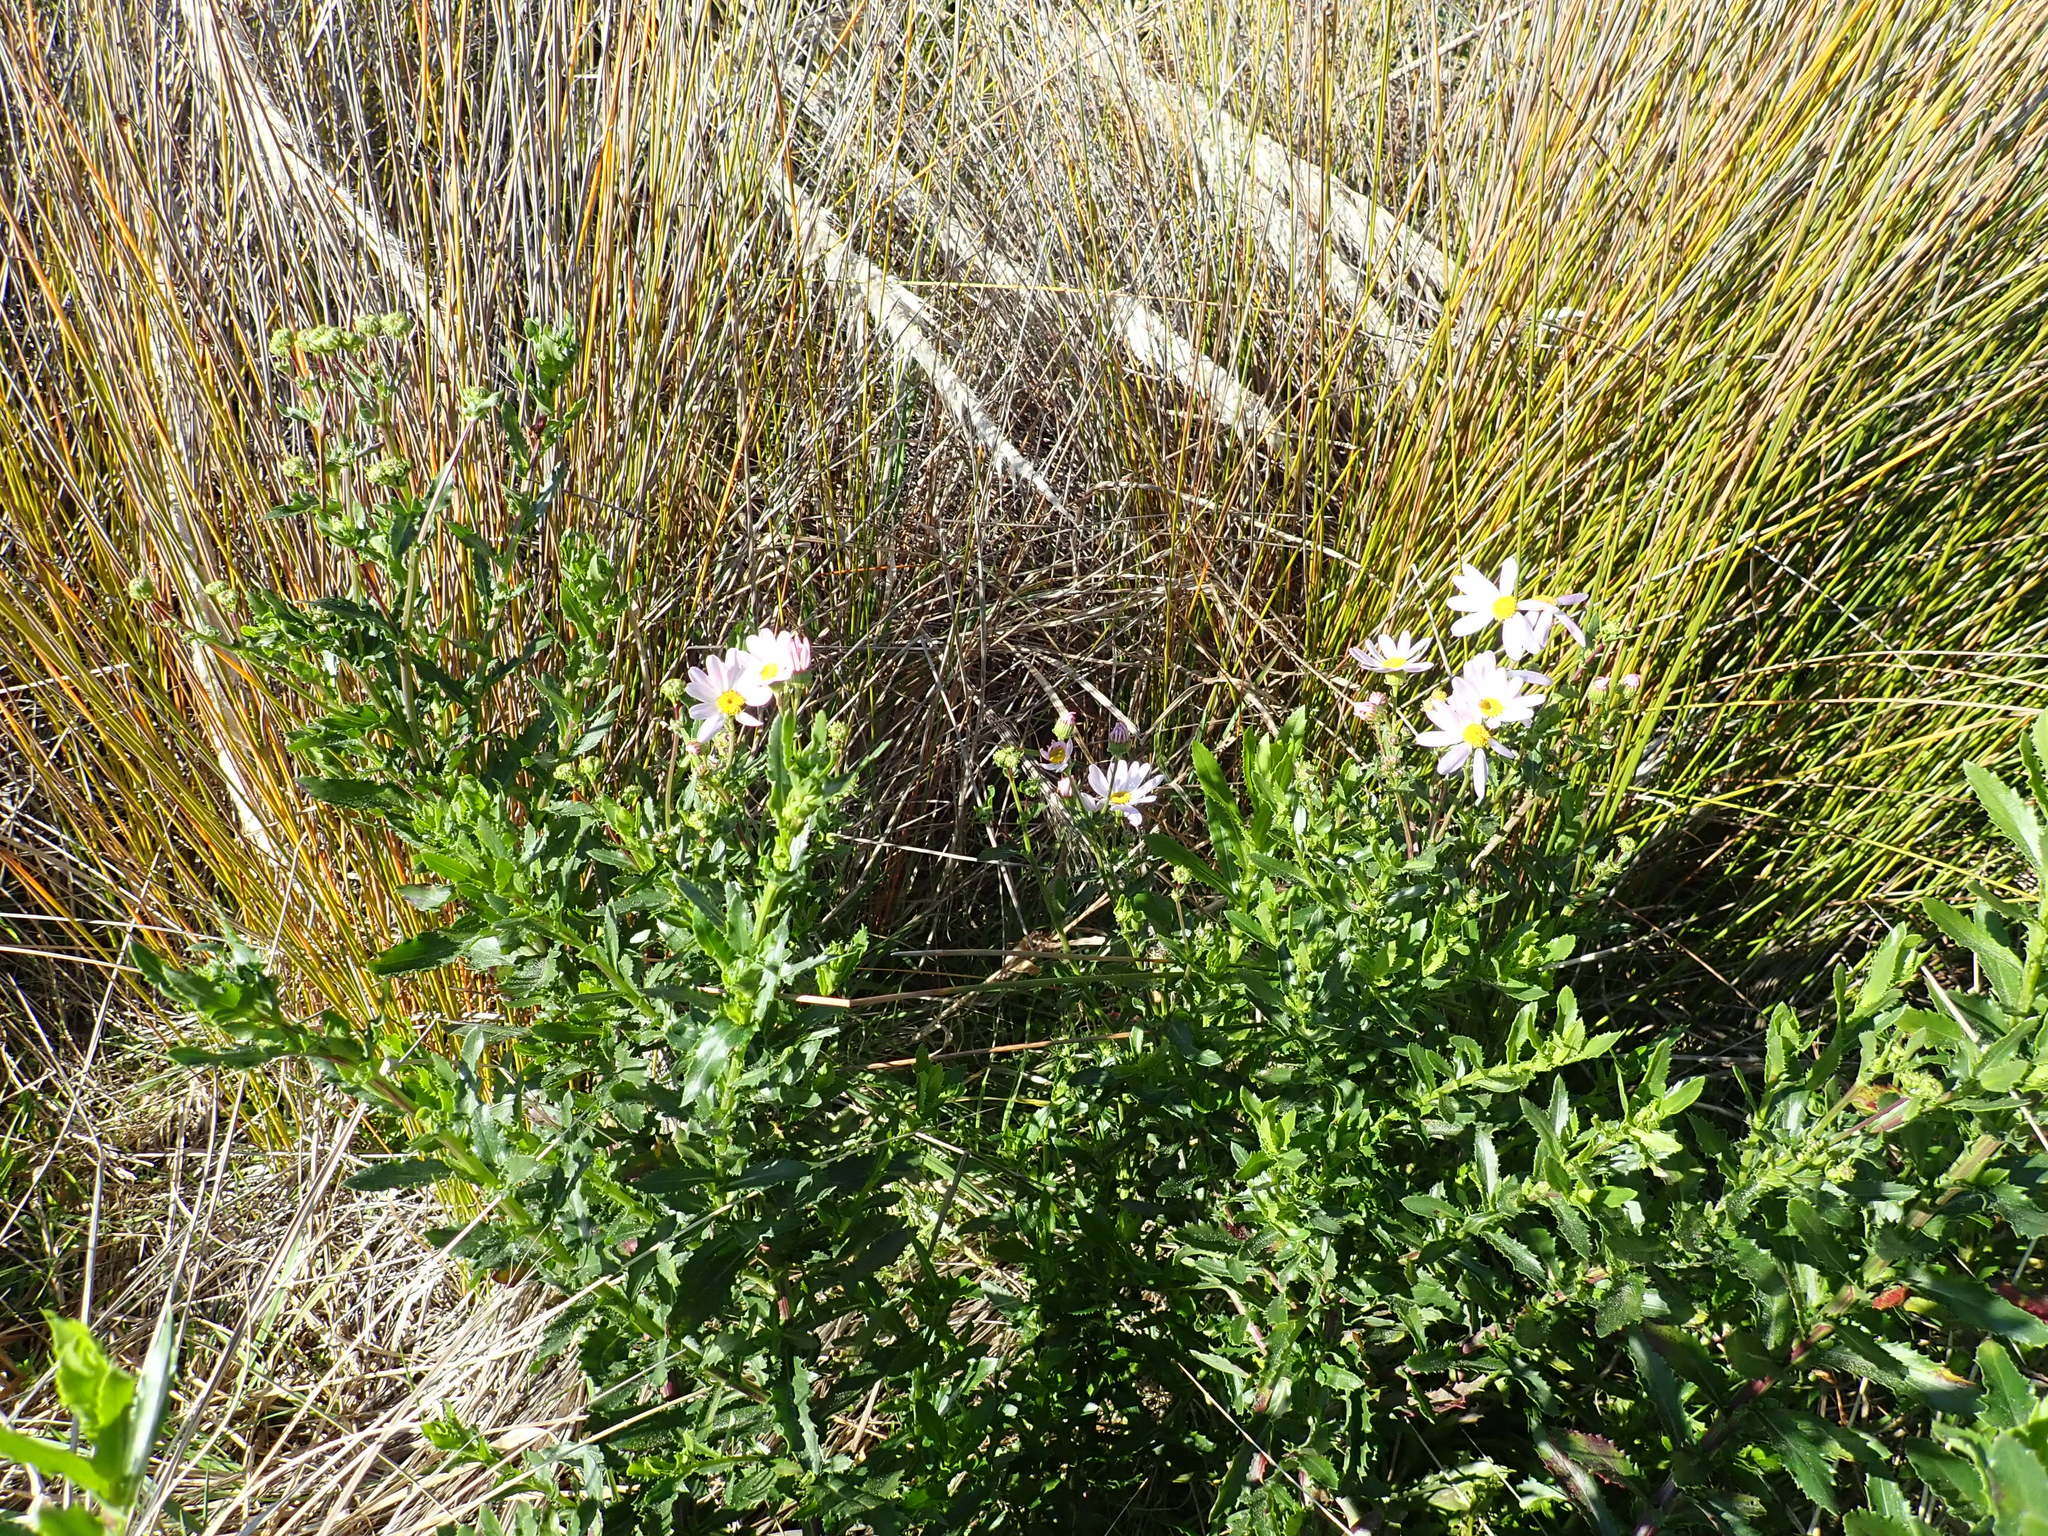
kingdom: Plantae
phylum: Tracheophyta
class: Magnoliopsida
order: Asterales
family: Asteraceae
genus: Senecio
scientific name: Senecio glastifolius
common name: Woad-leaved ragwort
